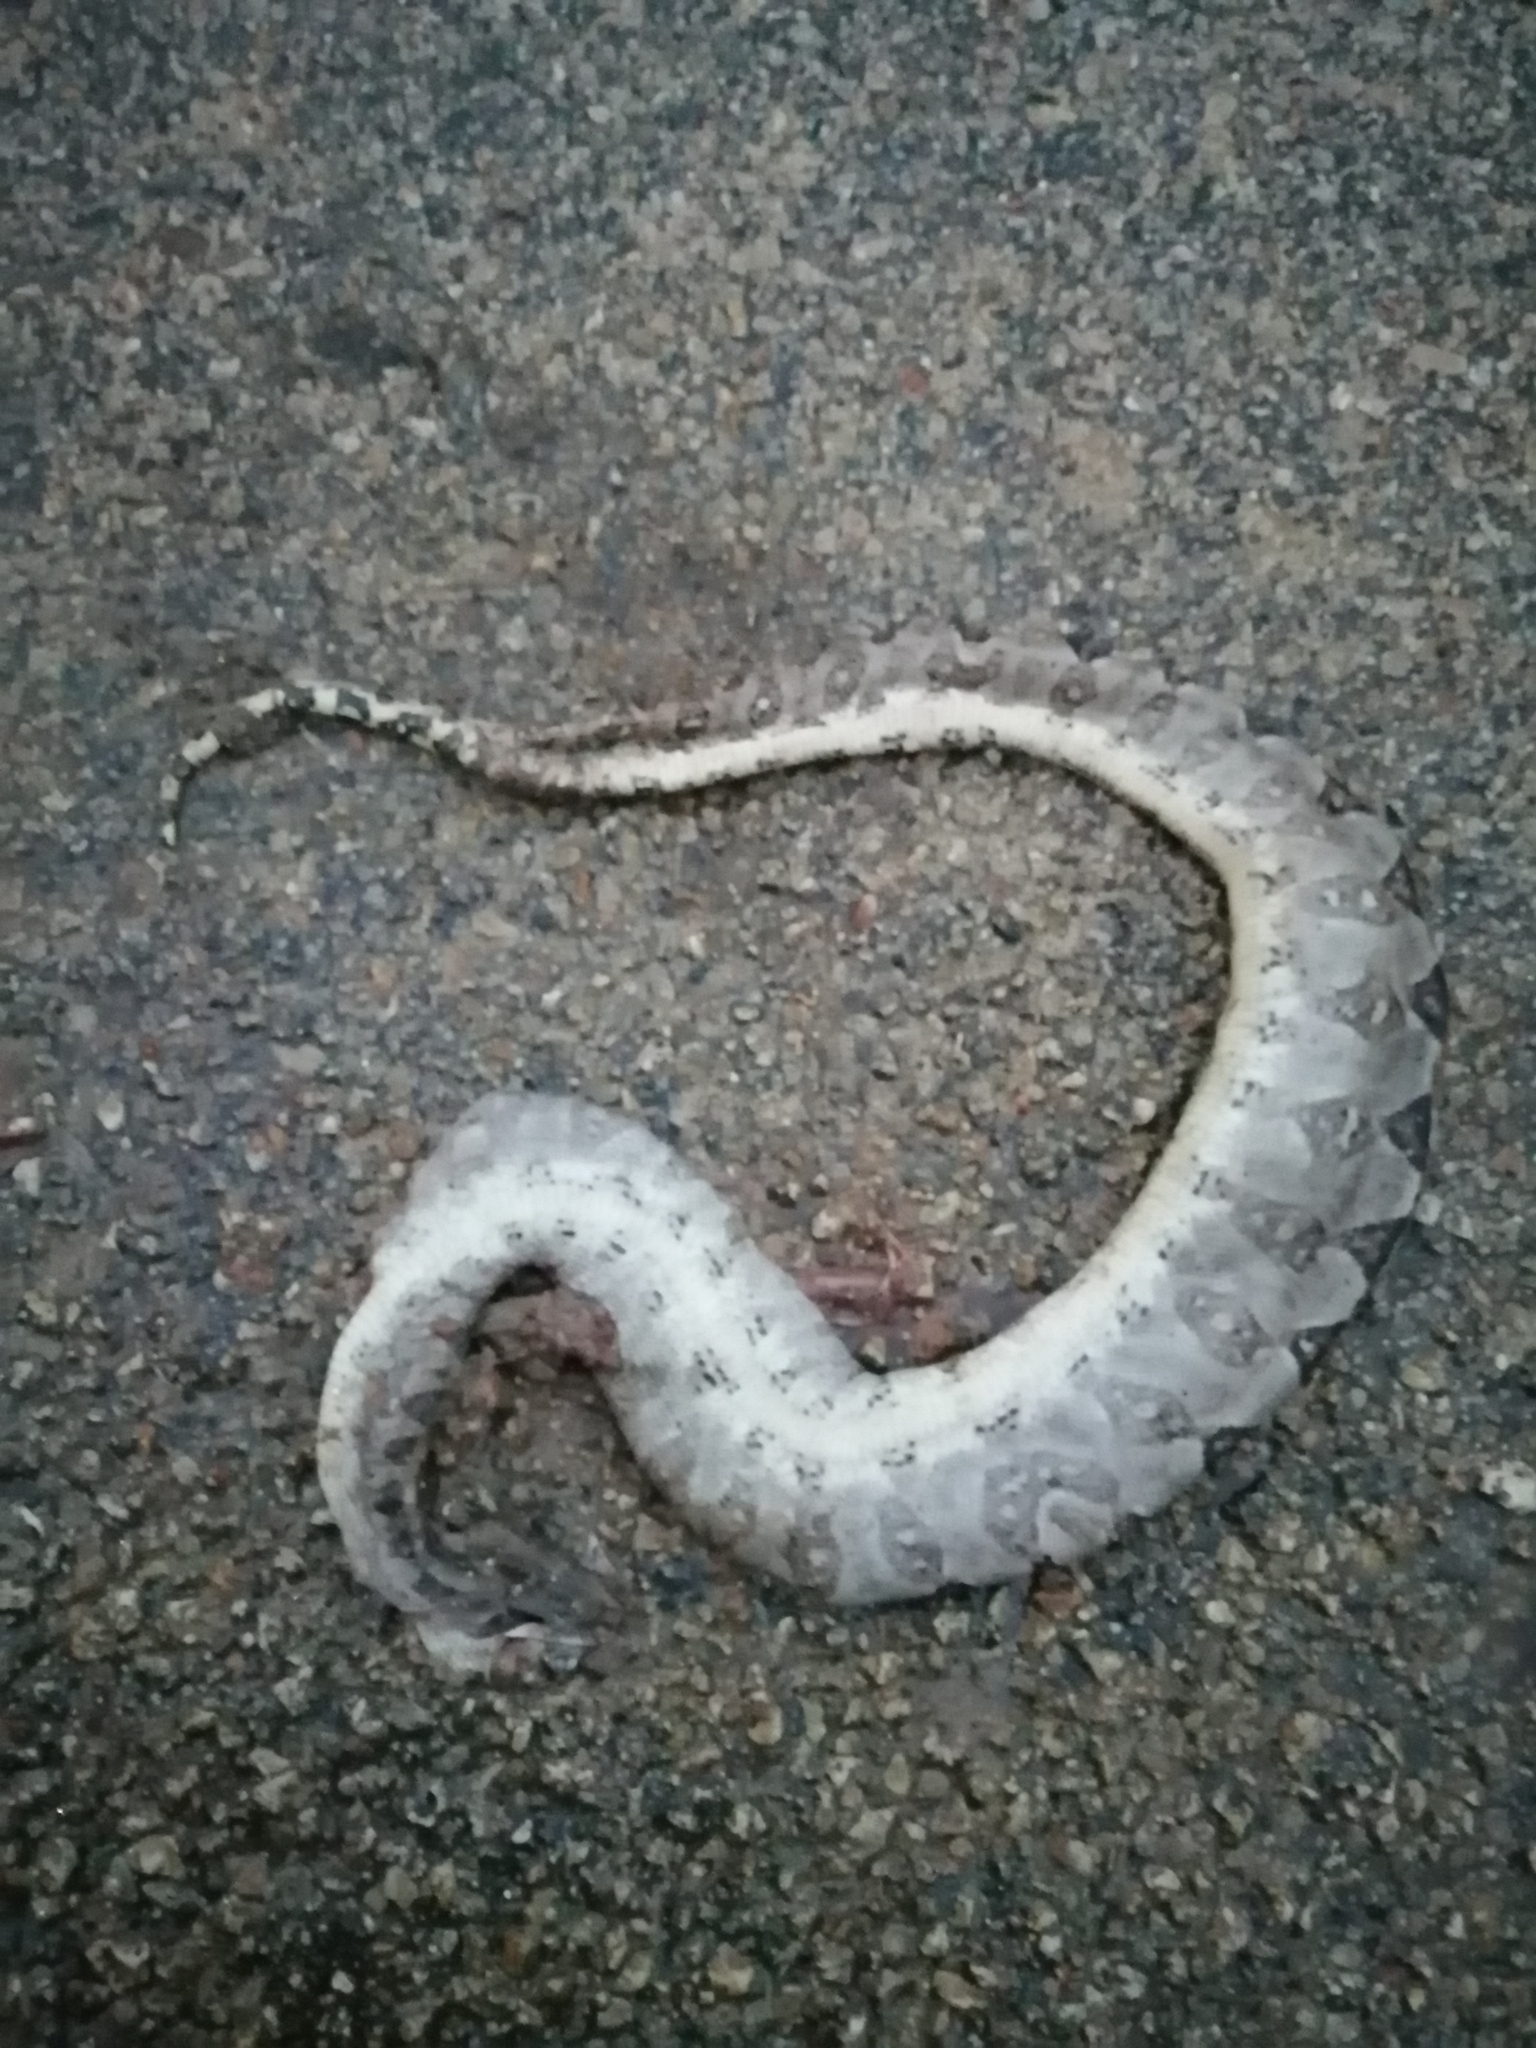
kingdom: Animalia
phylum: Chordata
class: Squamata
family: Boidae
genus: Boa
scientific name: Boa imperator
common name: Central american boa
